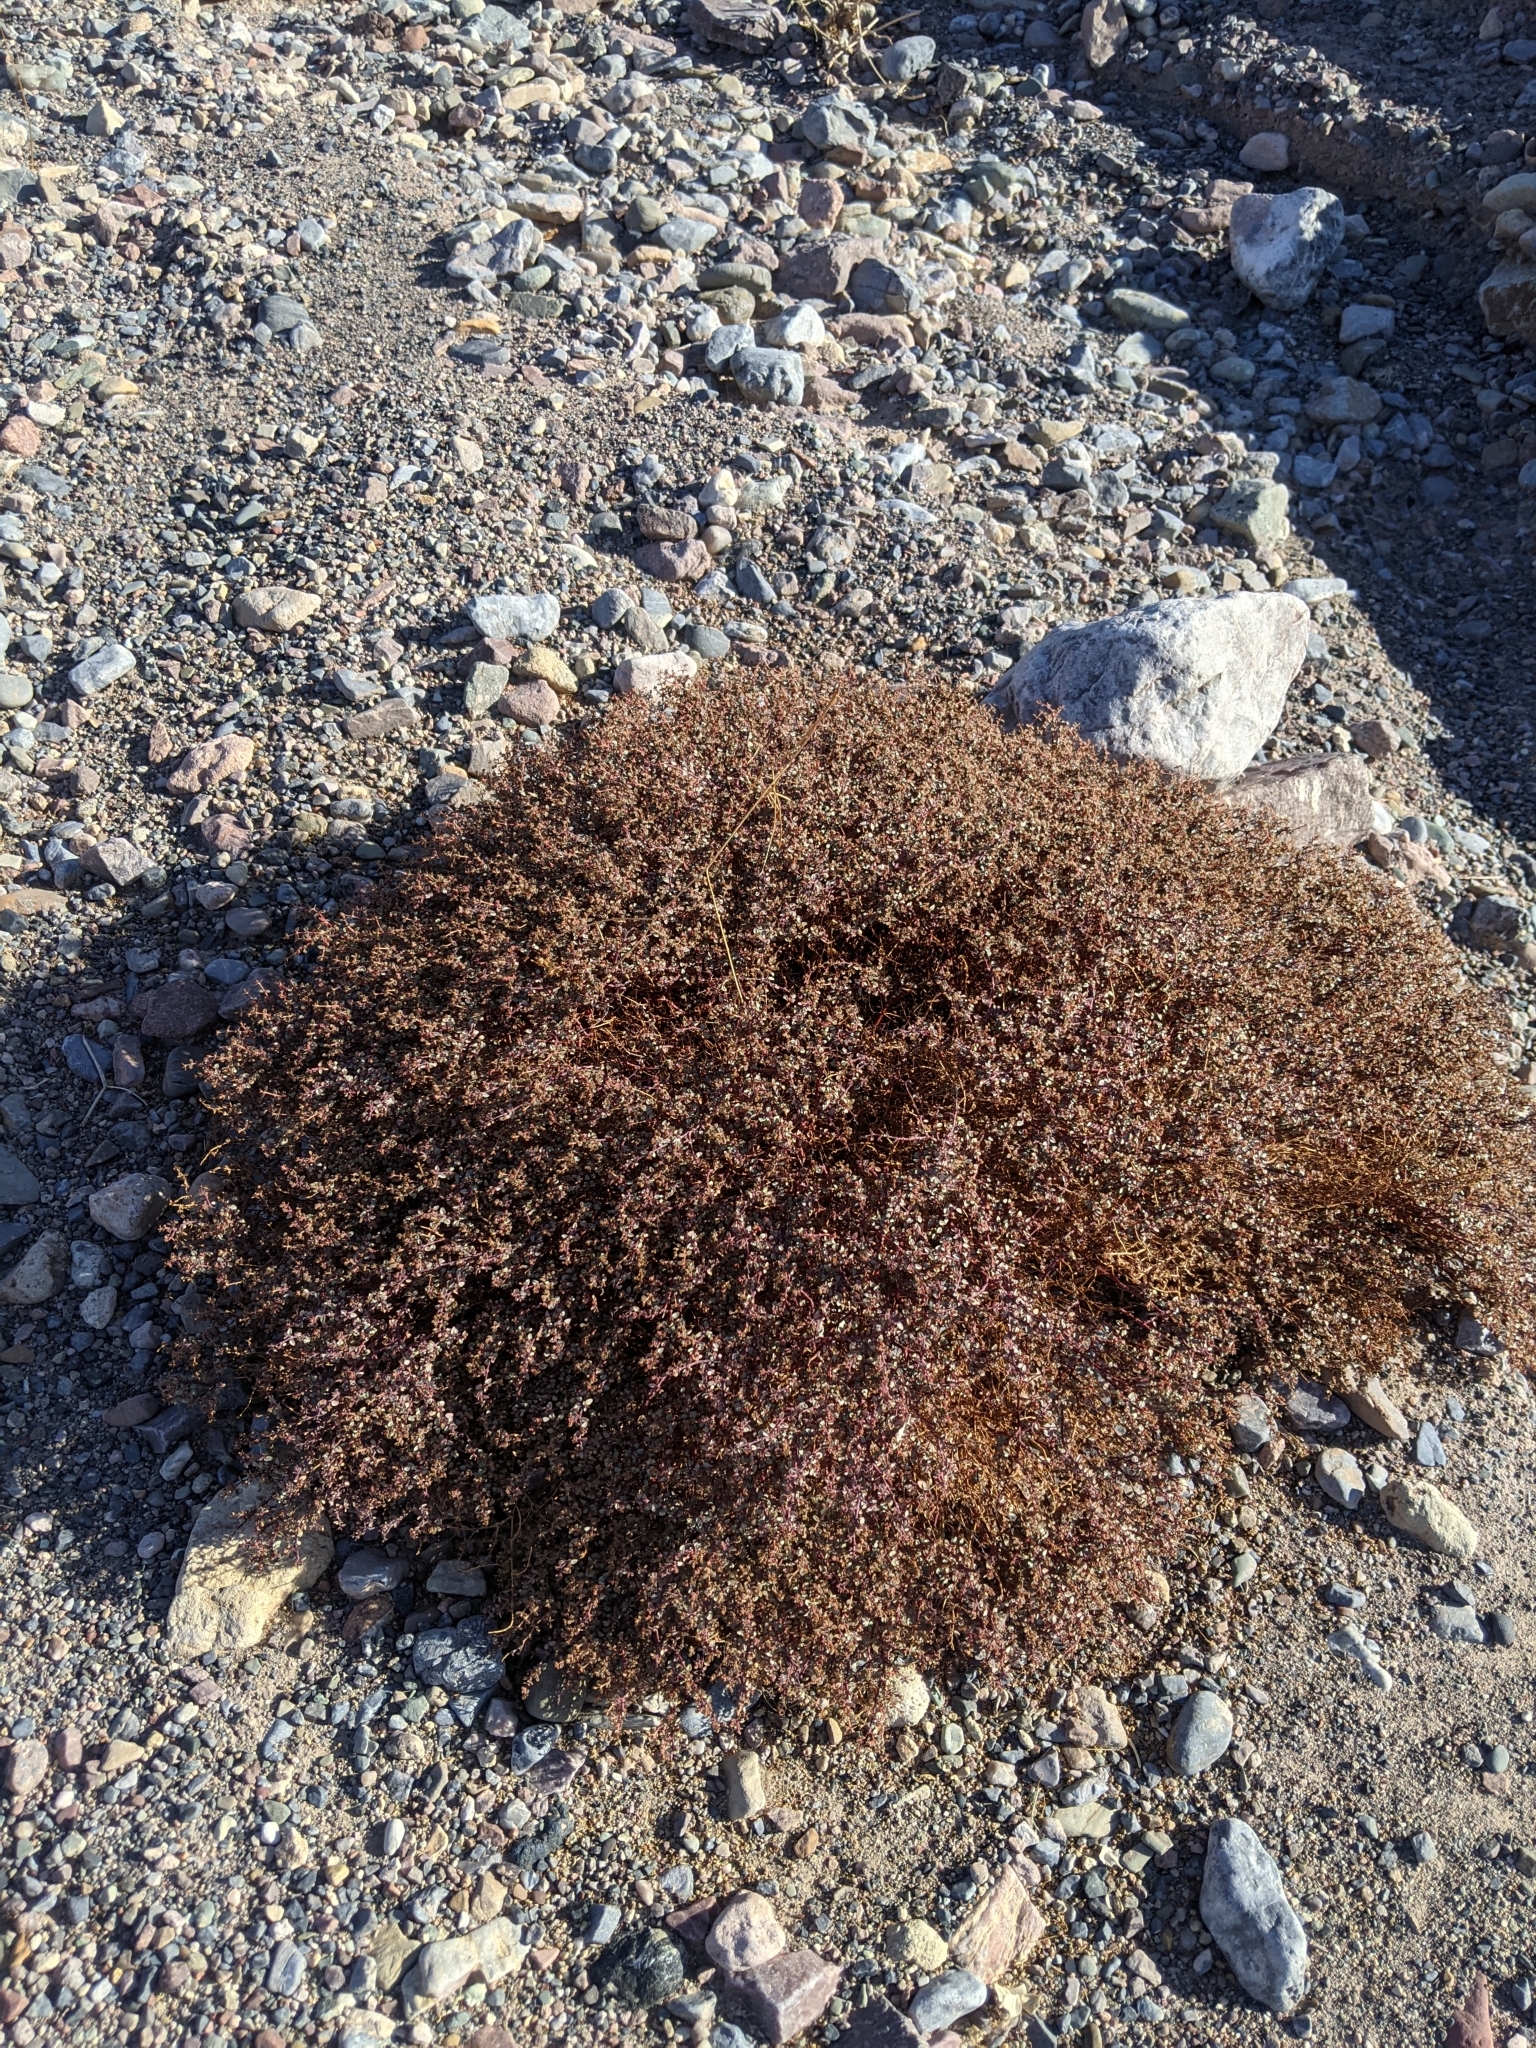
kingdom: Plantae
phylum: Tracheophyta
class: Magnoliopsida
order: Malpighiales
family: Euphorbiaceae
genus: Euphorbia
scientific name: Euphorbia parishii
